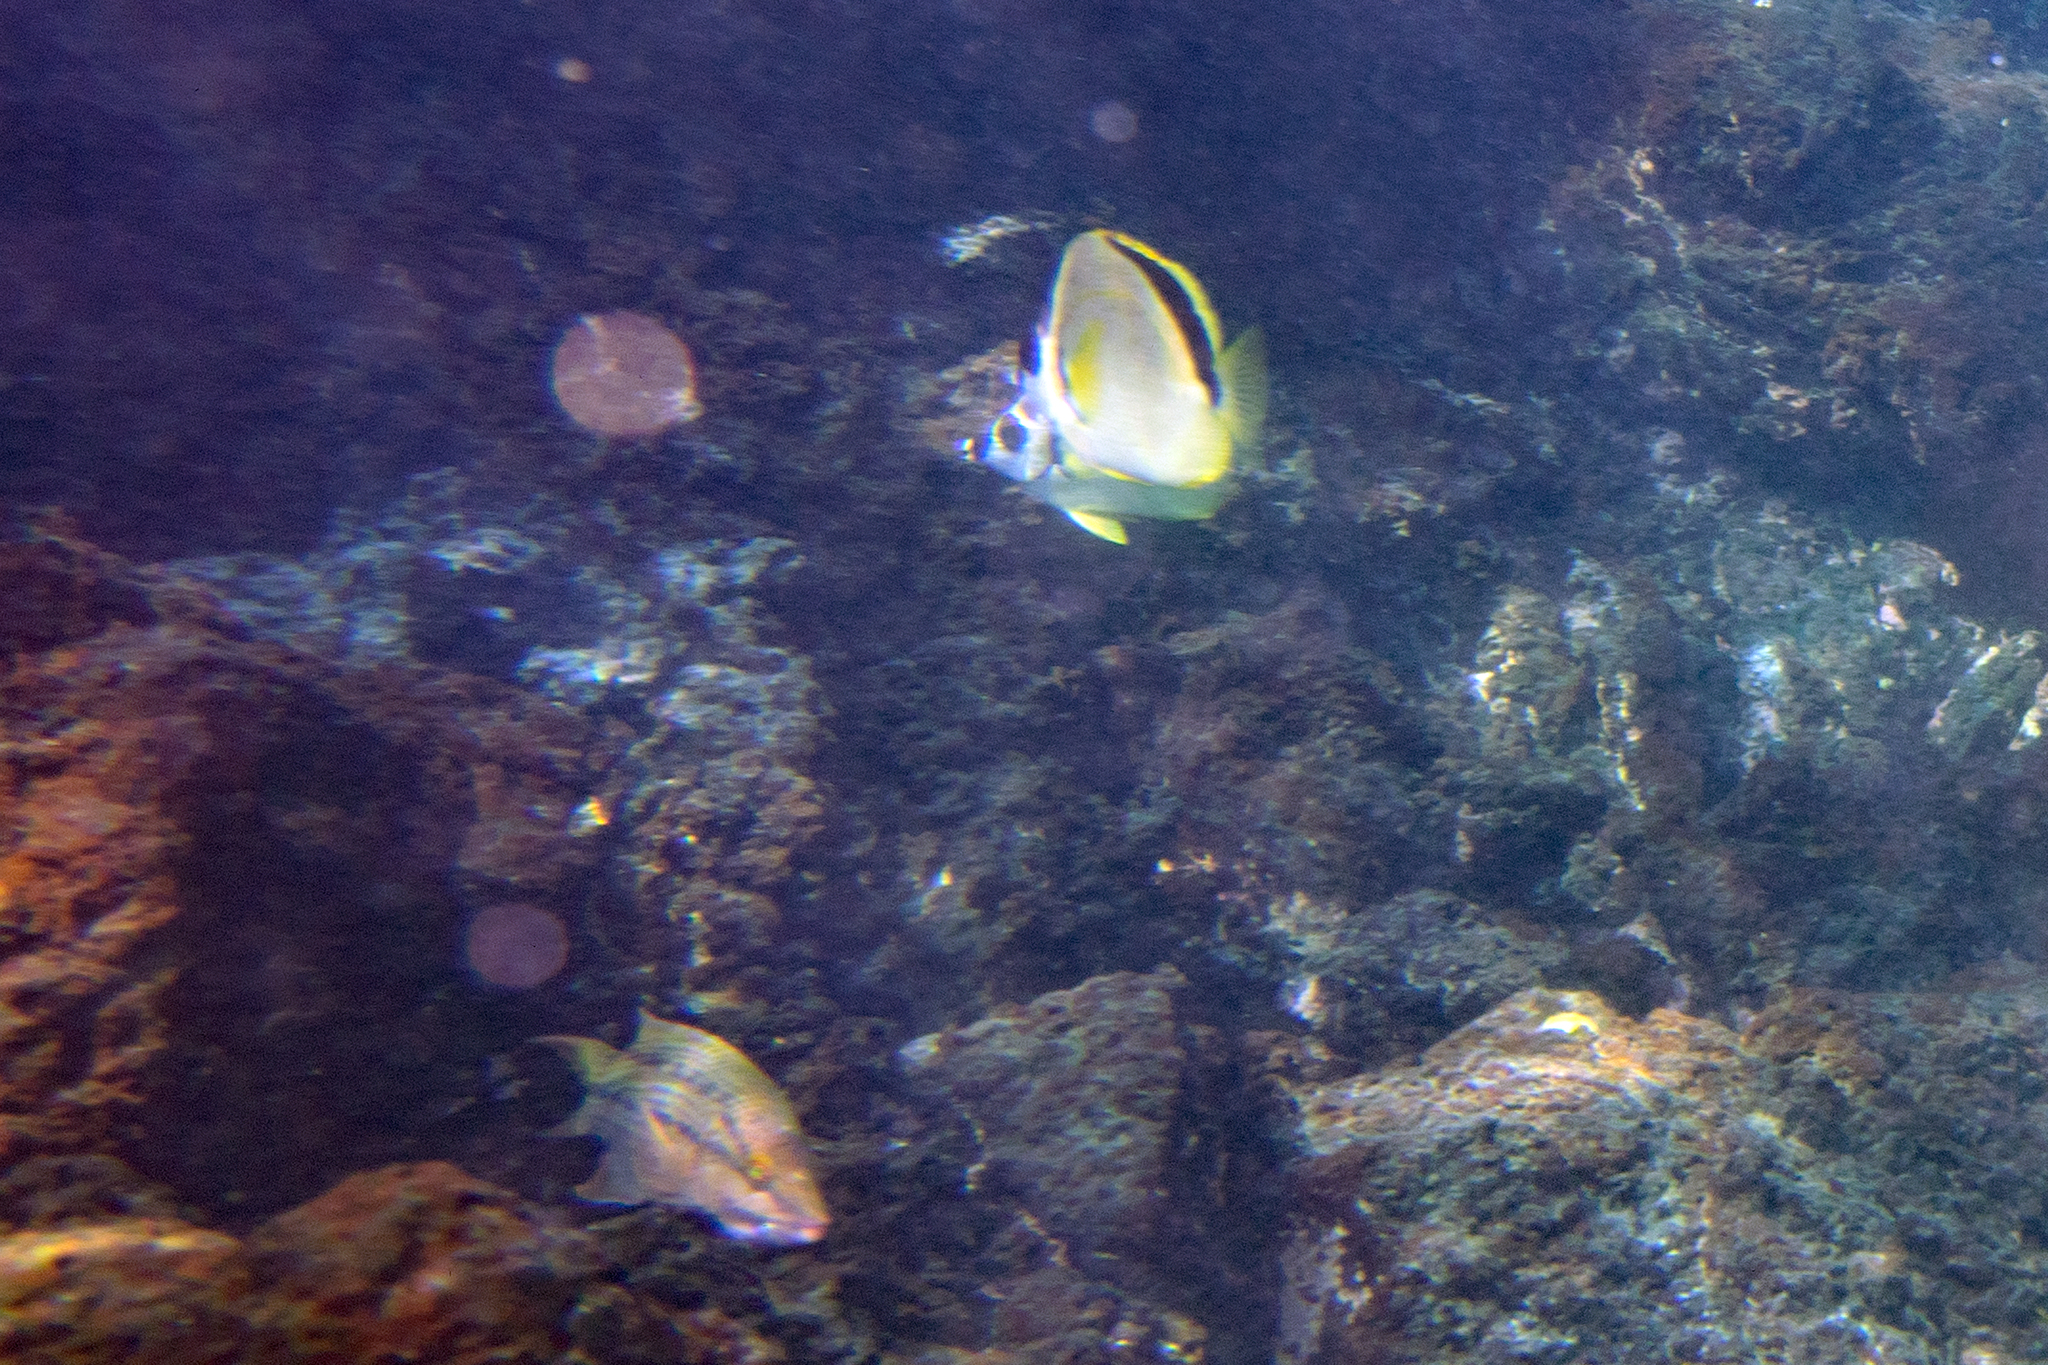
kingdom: Animalia
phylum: Chordata
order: Perciformes
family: Labridae
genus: Bodianus
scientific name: Bodianus diplotaenia
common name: Mexican hogfish
